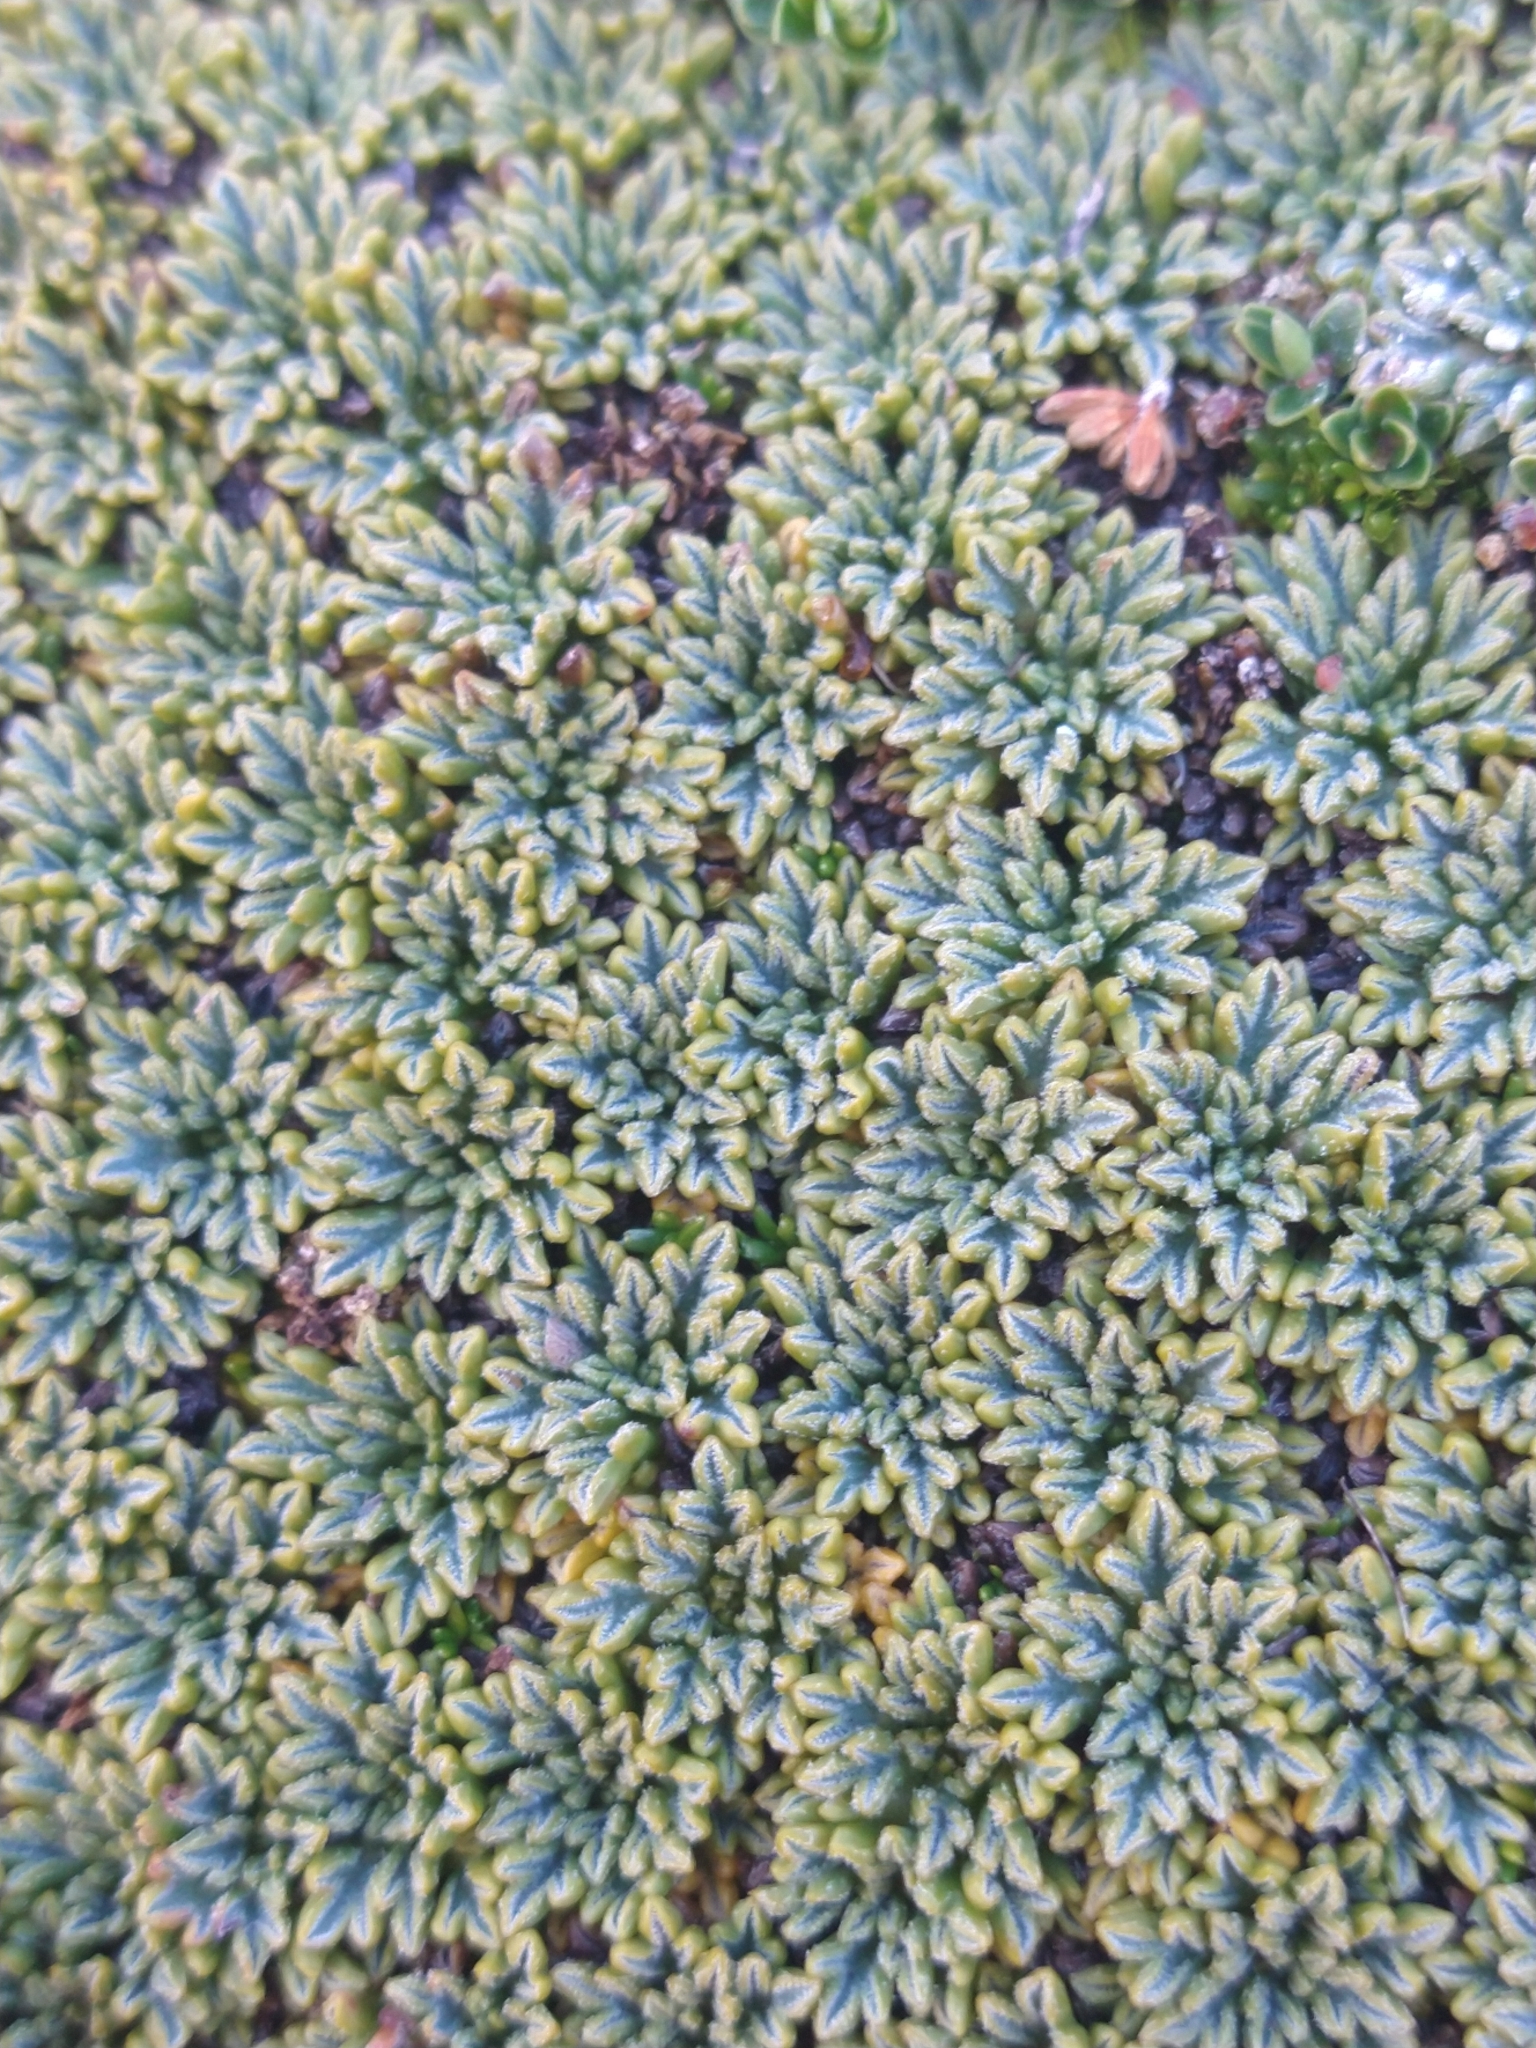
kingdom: Plantae
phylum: Tracheophyta
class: Magnoliopsida
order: Apiales
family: Apiaceae
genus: Bolax
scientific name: Bolax gummifera
